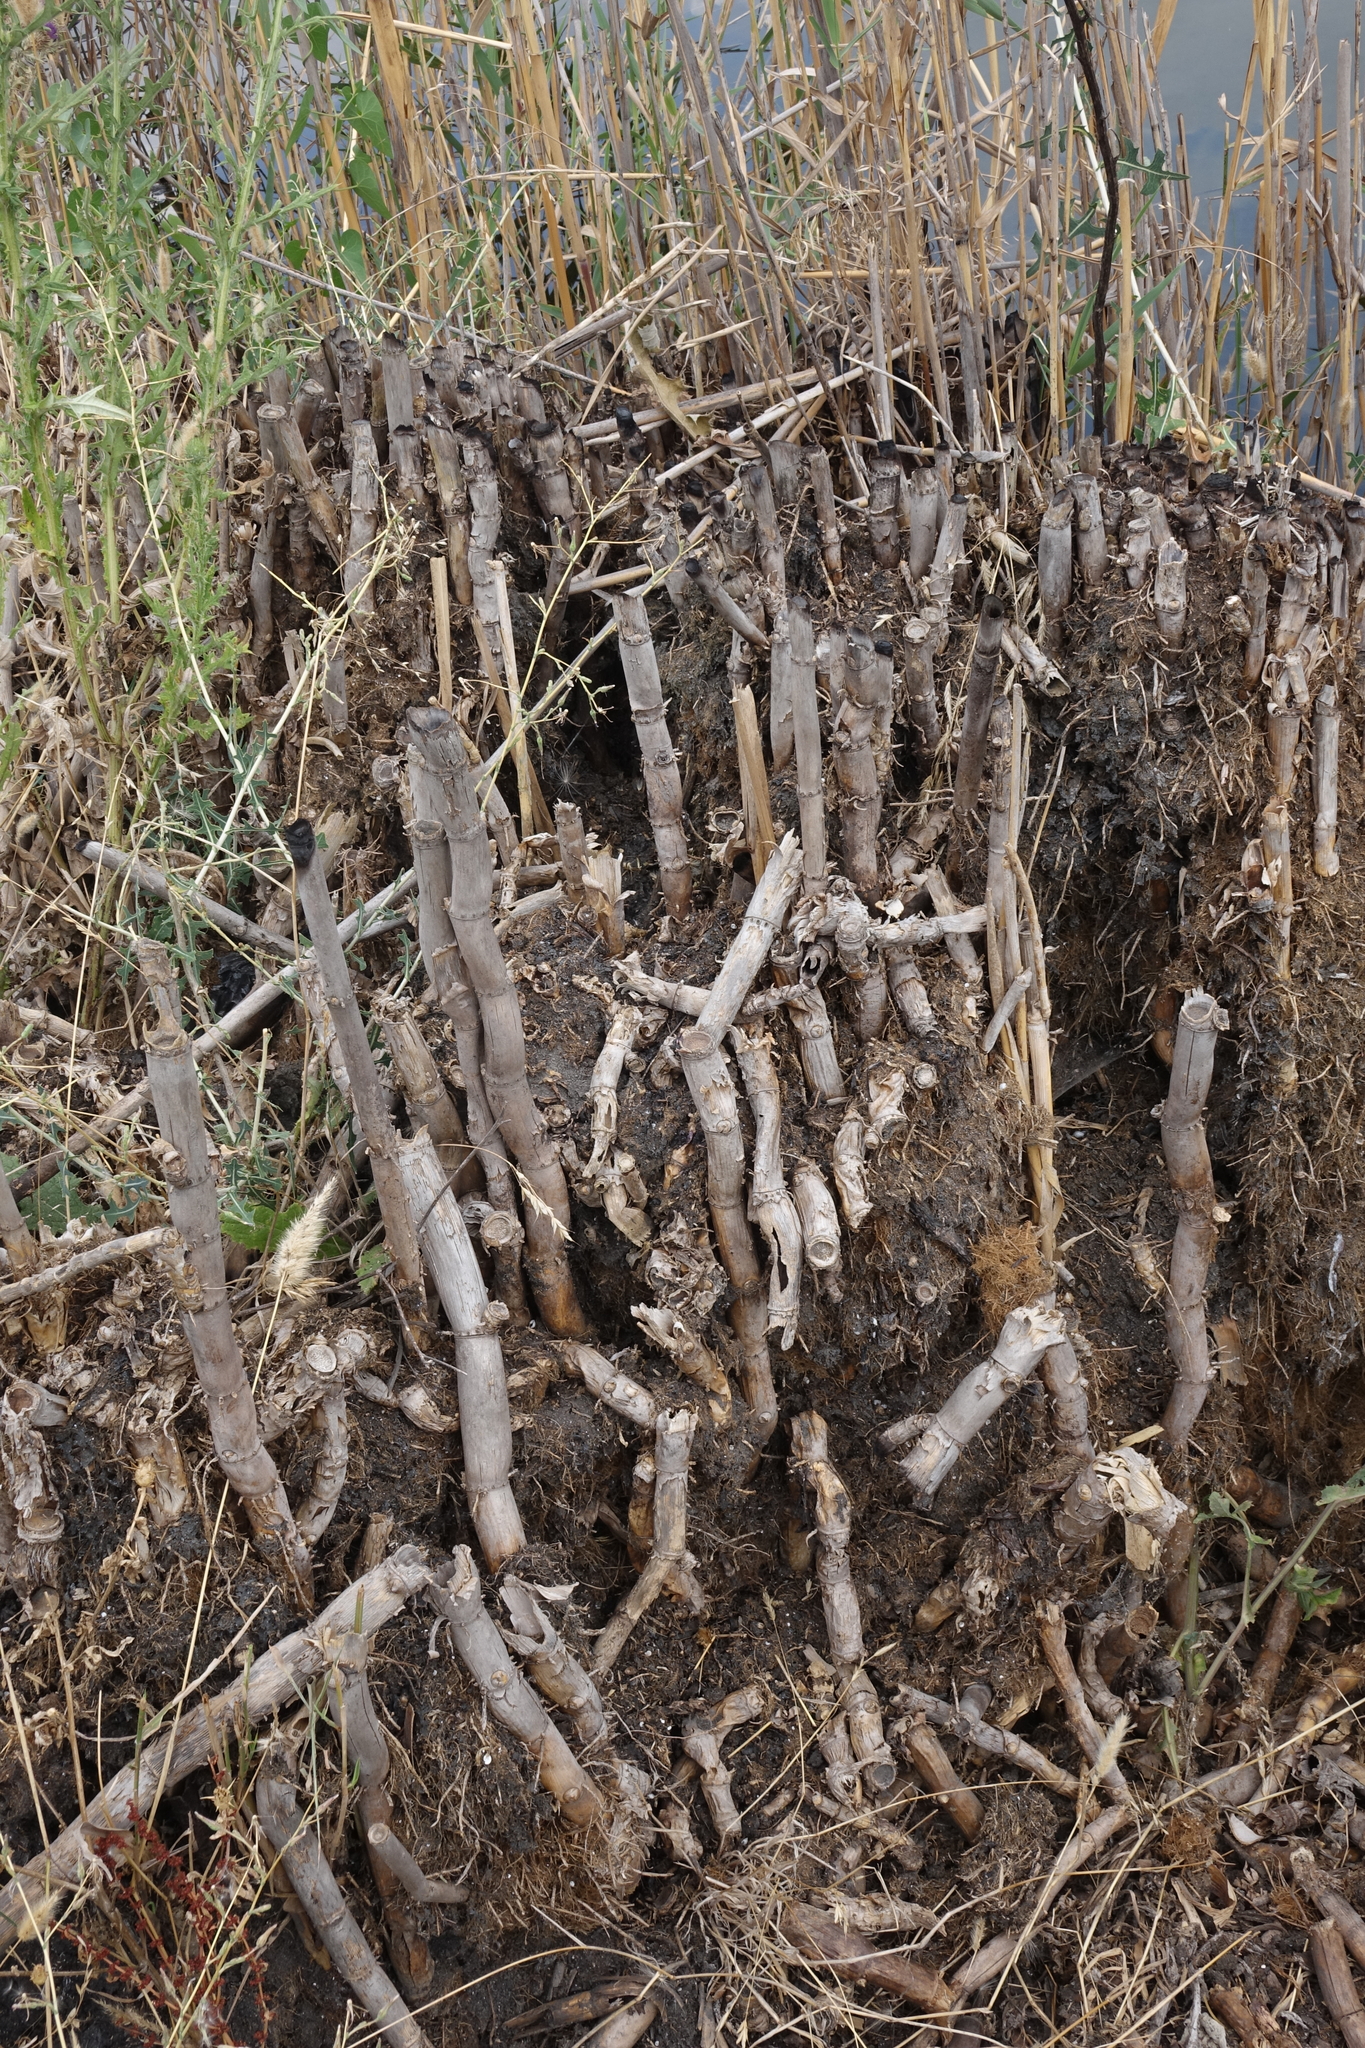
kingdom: Plantae
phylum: Tracheophyta
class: Liliopsida
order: Poales
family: Poaceae
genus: Phragmites
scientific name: Phragmites australis
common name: Common reed
